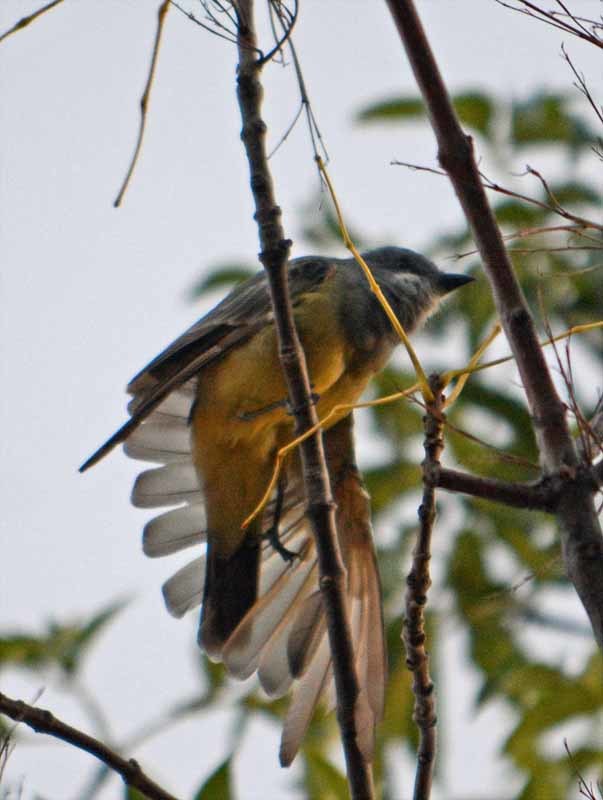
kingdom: Animalia
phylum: Chordata
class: Aves
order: Passeriformes
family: Tyrannidae
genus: Tyrannus
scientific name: Tyrannus vociferans
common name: Cassin's kingbird
